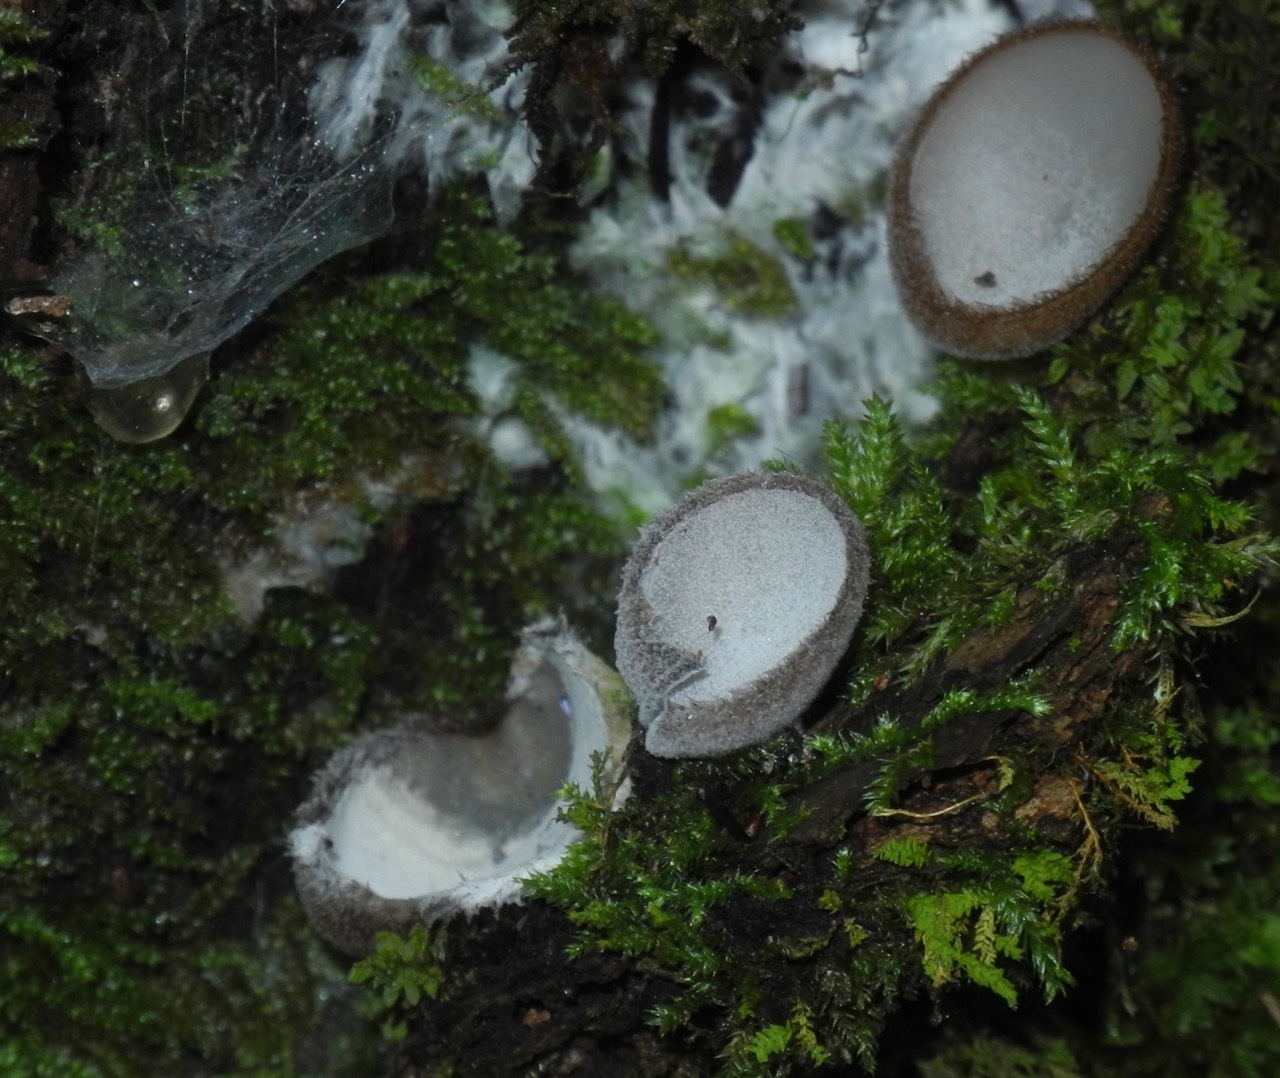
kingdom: Fungi
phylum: Ascomycota
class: Pezizomycetes
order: Pezizales
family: Pyronemataceae
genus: Humaria
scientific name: Humaria hemisphaerica
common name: Glazed cup
